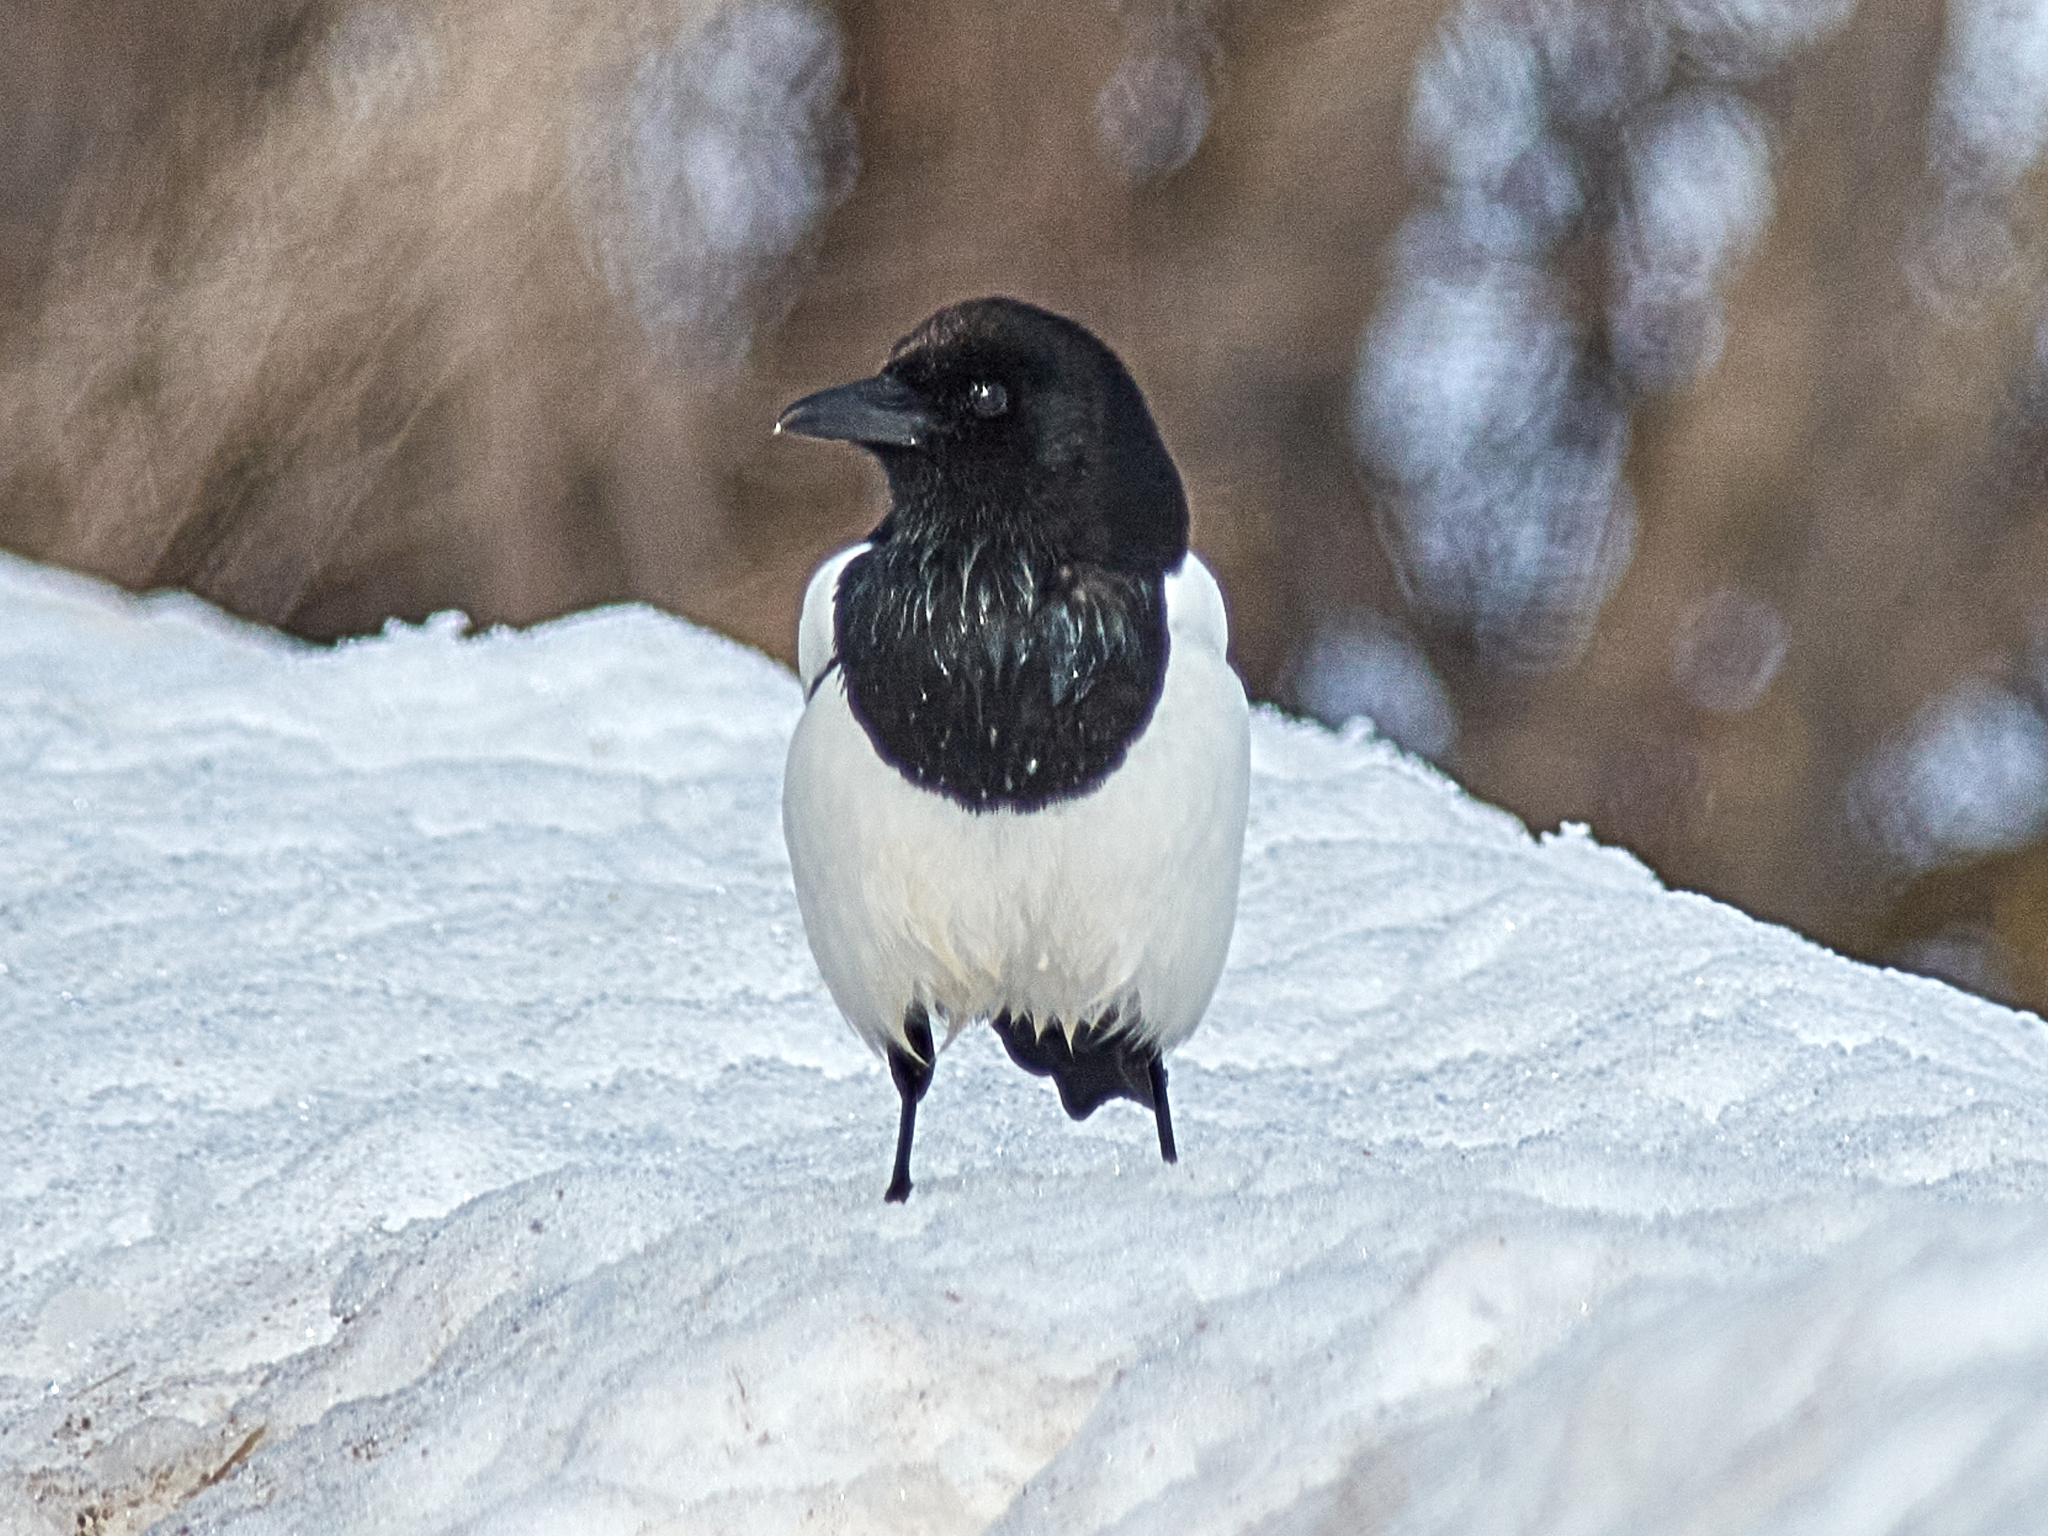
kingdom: Animalia
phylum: Chordata
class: Aves
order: Passeriformes
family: Corvidae
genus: Pica
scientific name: Pica pica
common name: Eurasian magpie
